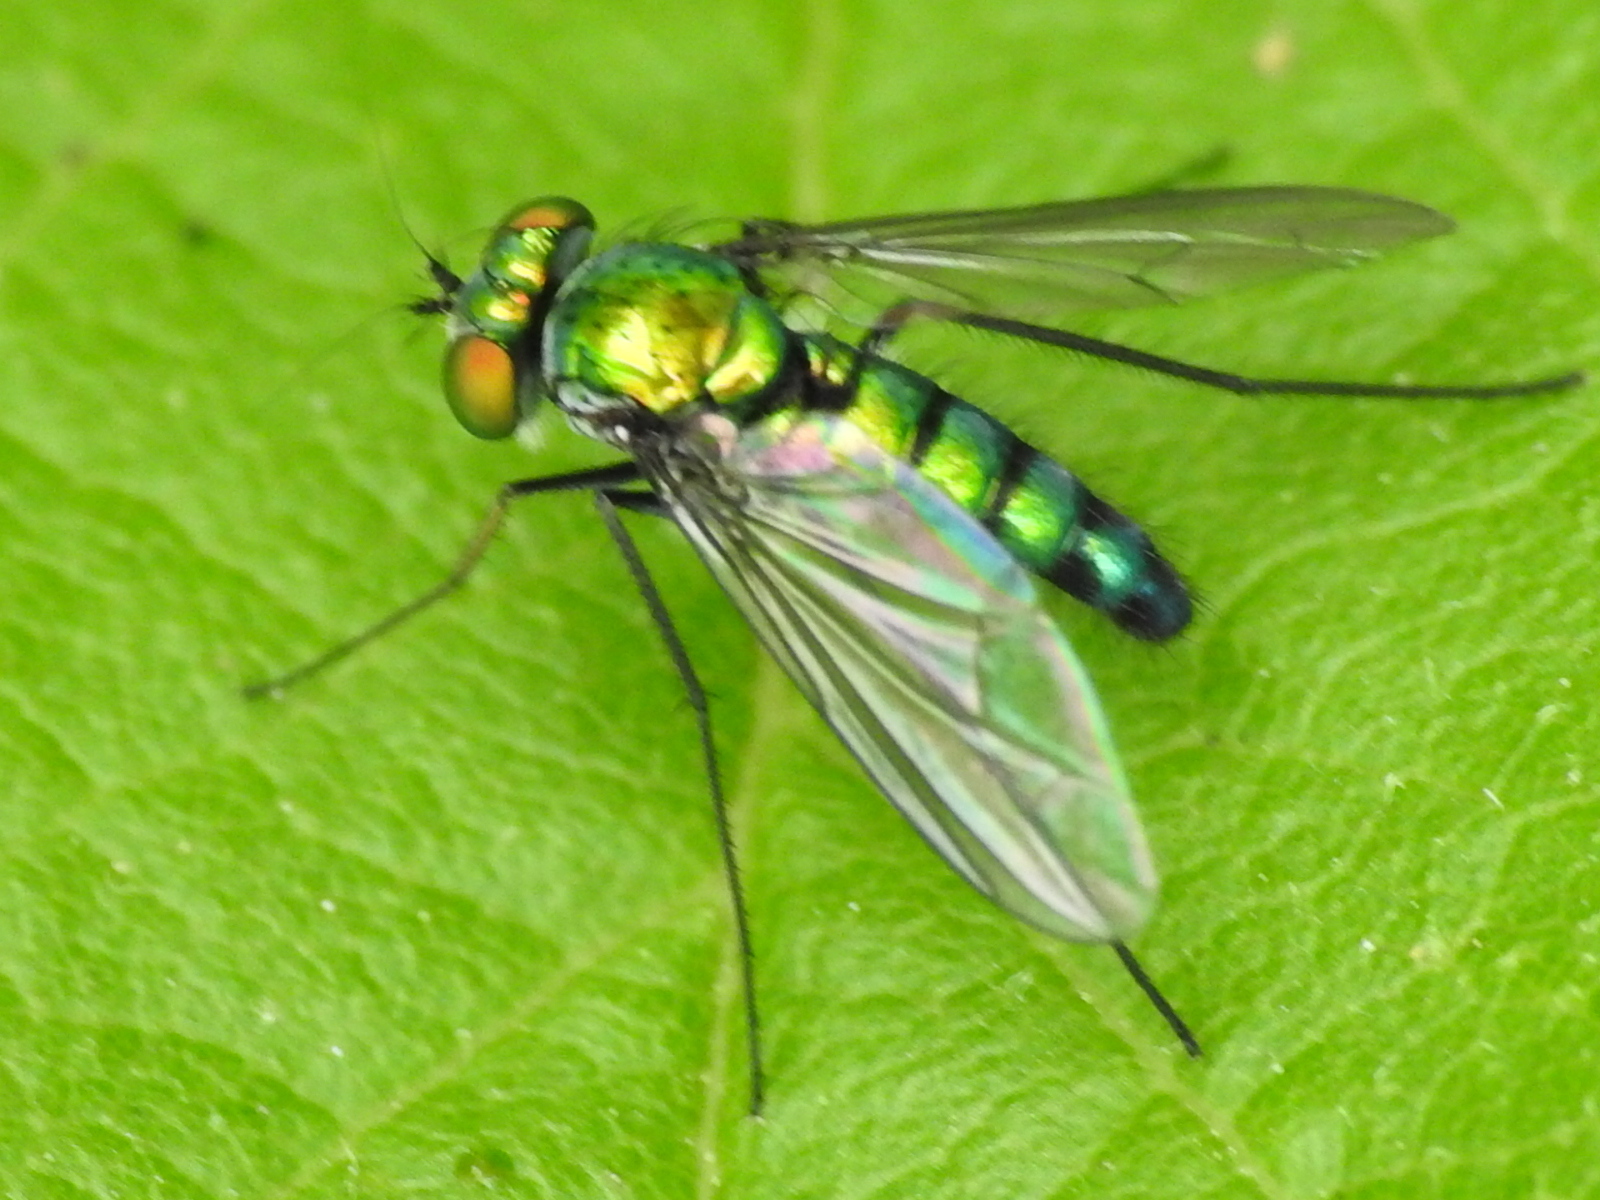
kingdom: Animalia
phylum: Arthropoda
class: Insecta
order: Diptera
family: Dolichopodidae
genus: Condylostylus
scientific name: Condylostylus longicornis
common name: Long-legged fly
